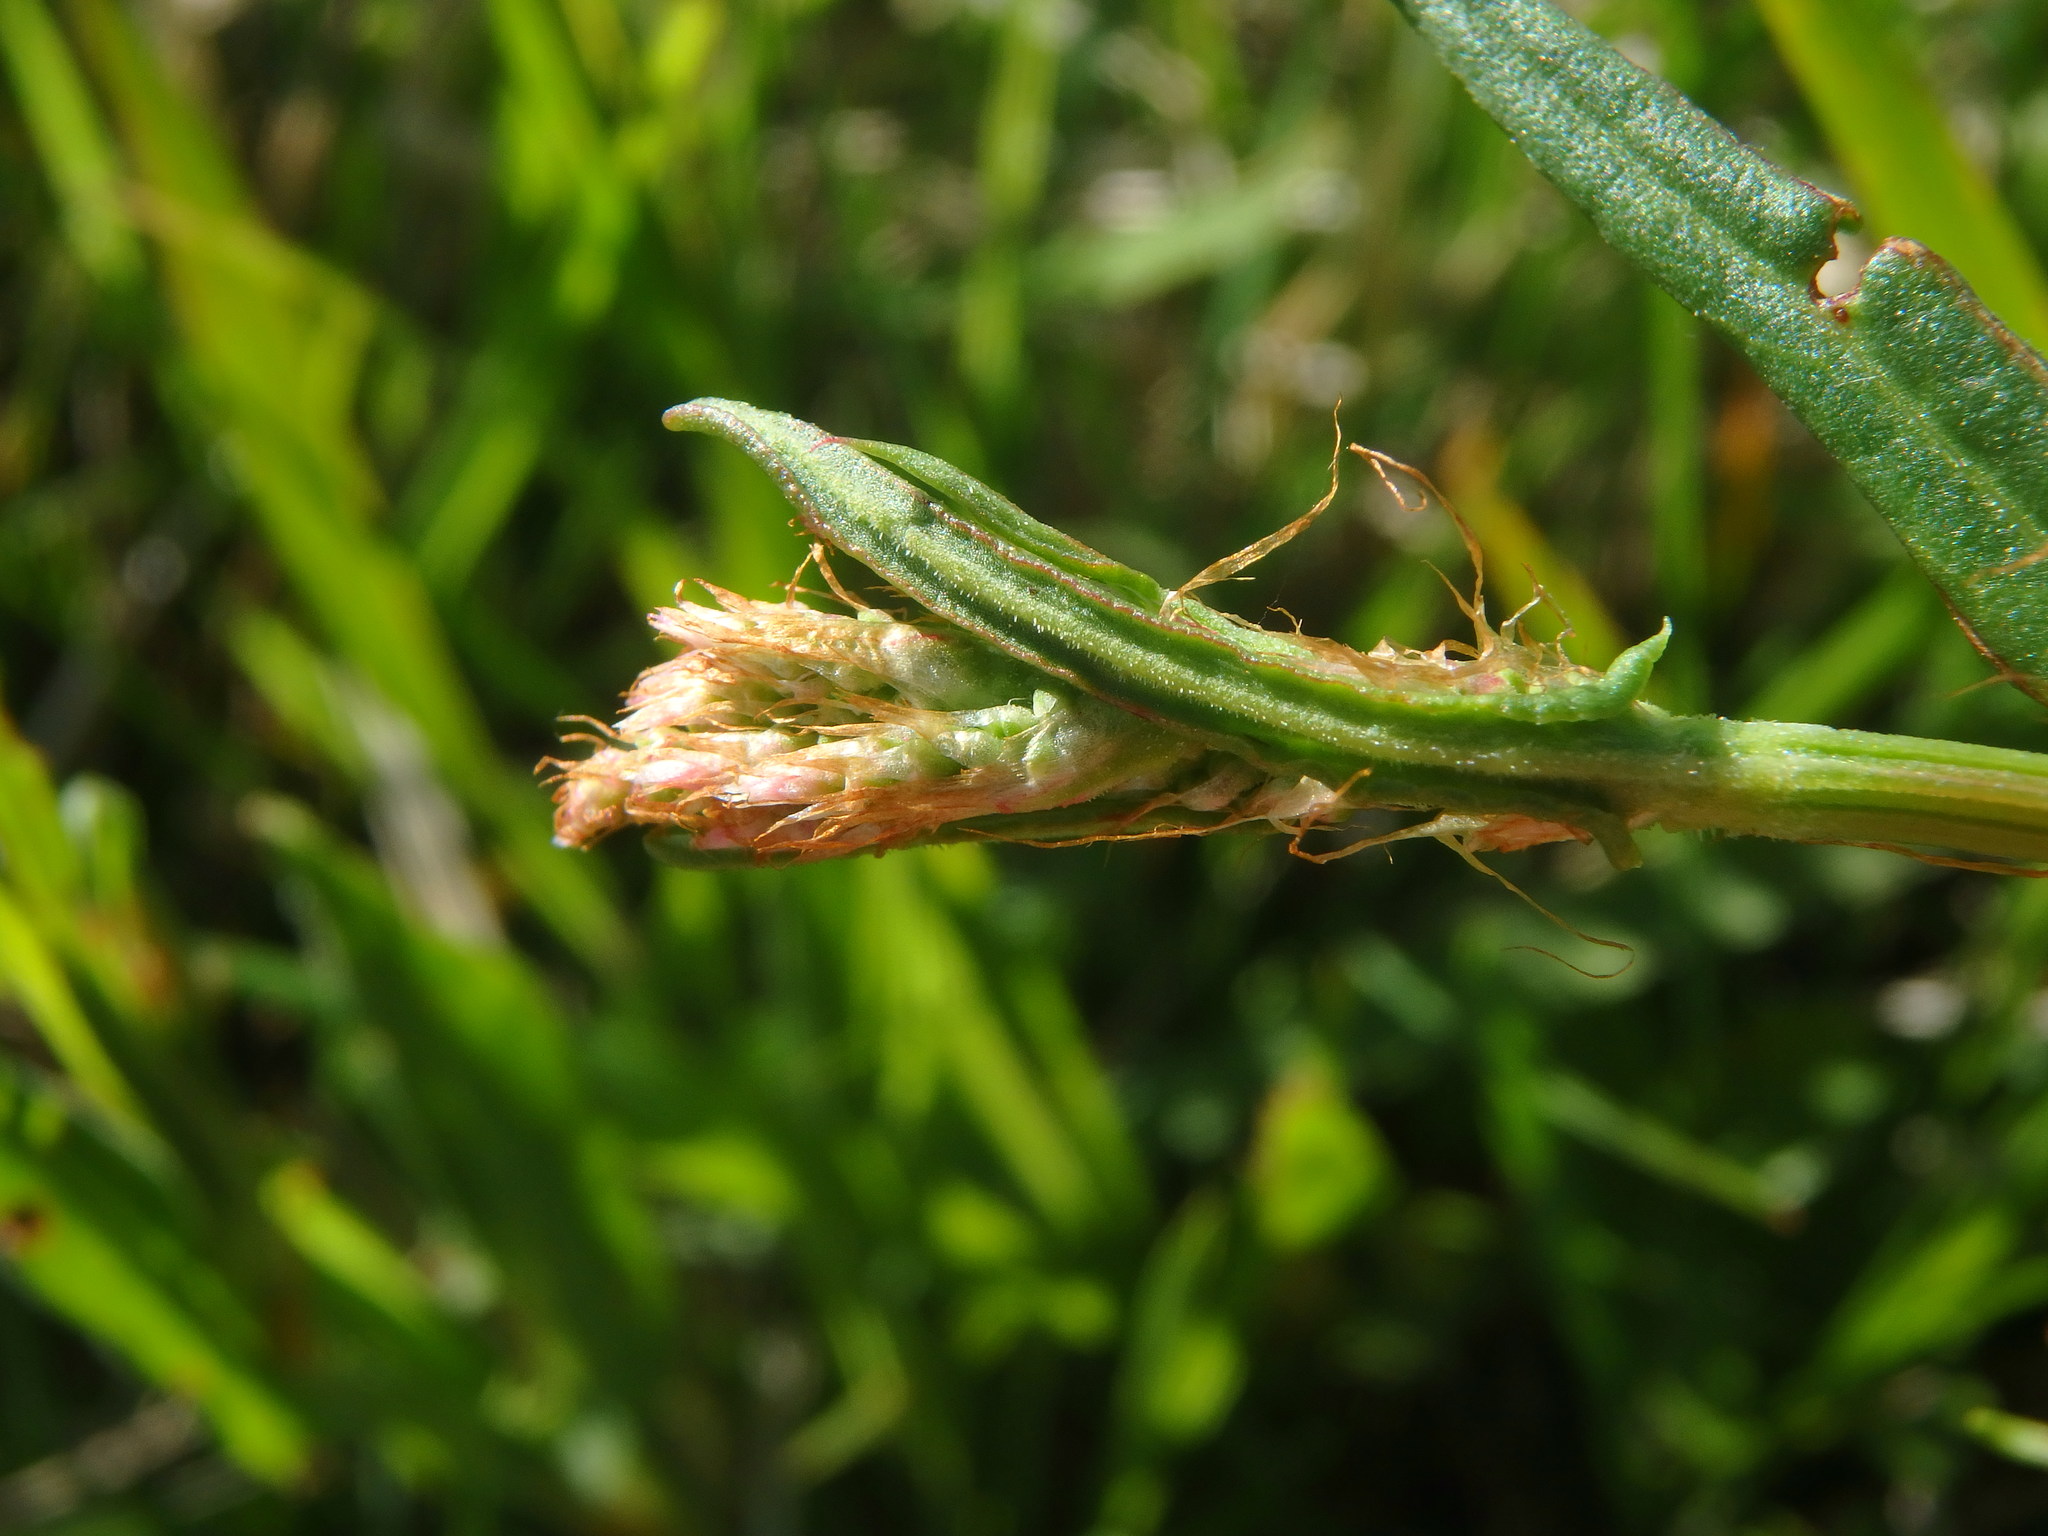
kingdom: Plantae
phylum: Tracheophyta
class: Magnoliopsida
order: Caryophyllales
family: Polygonaceae
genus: Rumex
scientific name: Rumex acetosa
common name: Garden sorrel
